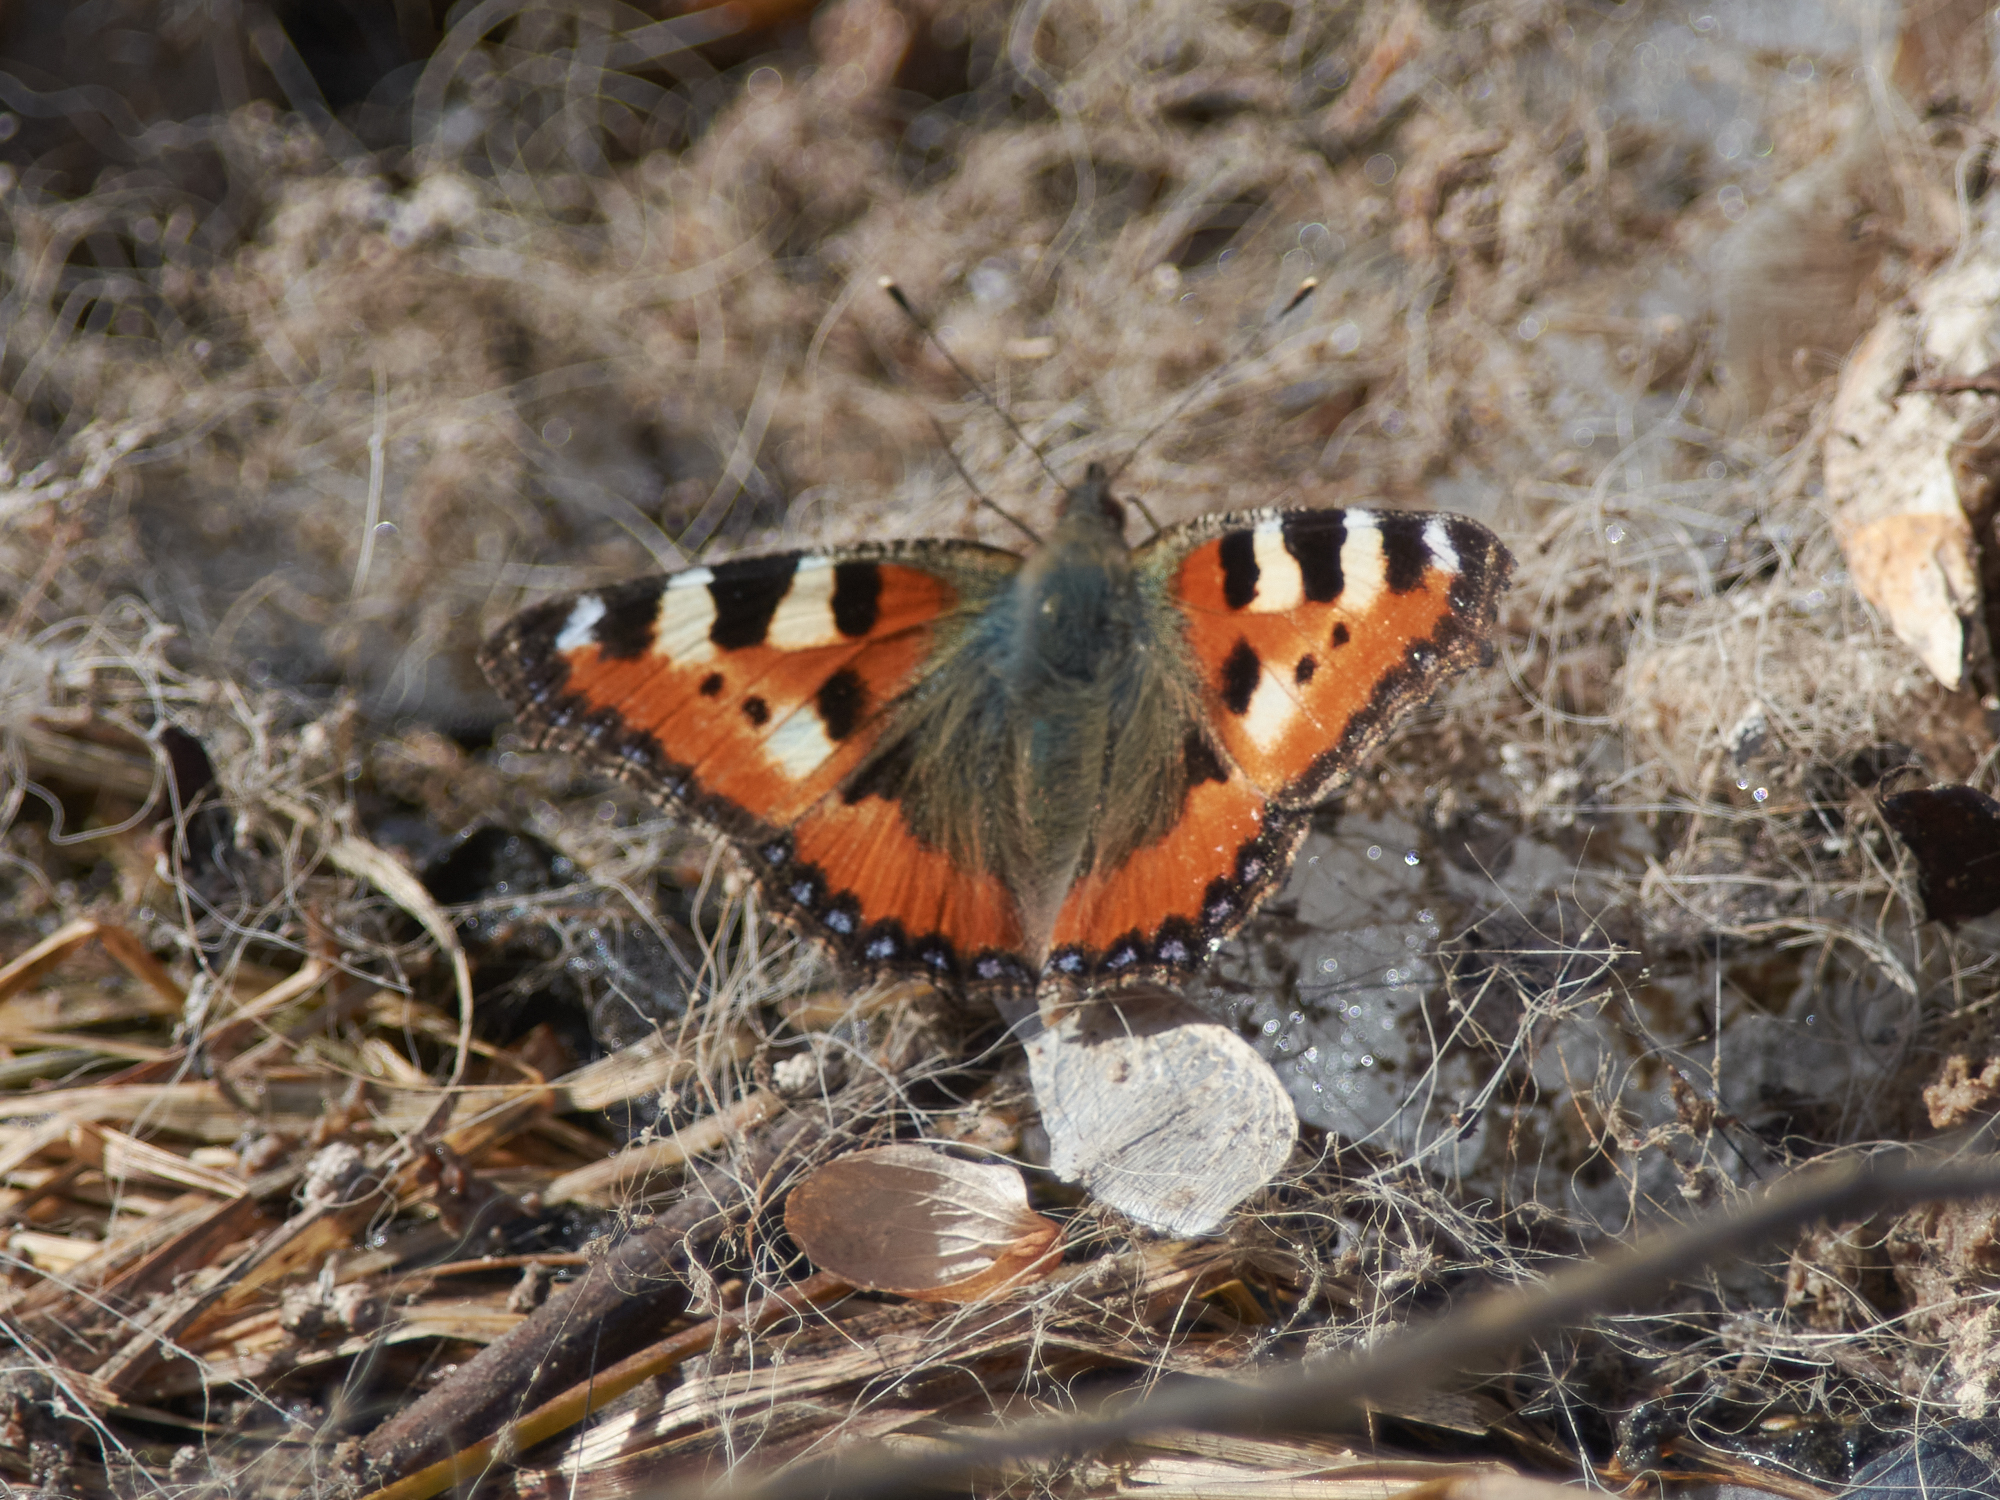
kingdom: Animalia
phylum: Arthropoda
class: Insecta
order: Lepidoptera
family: Nymphalidae
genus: Aglais
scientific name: Aglais urticae
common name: Small tortoiseshell
